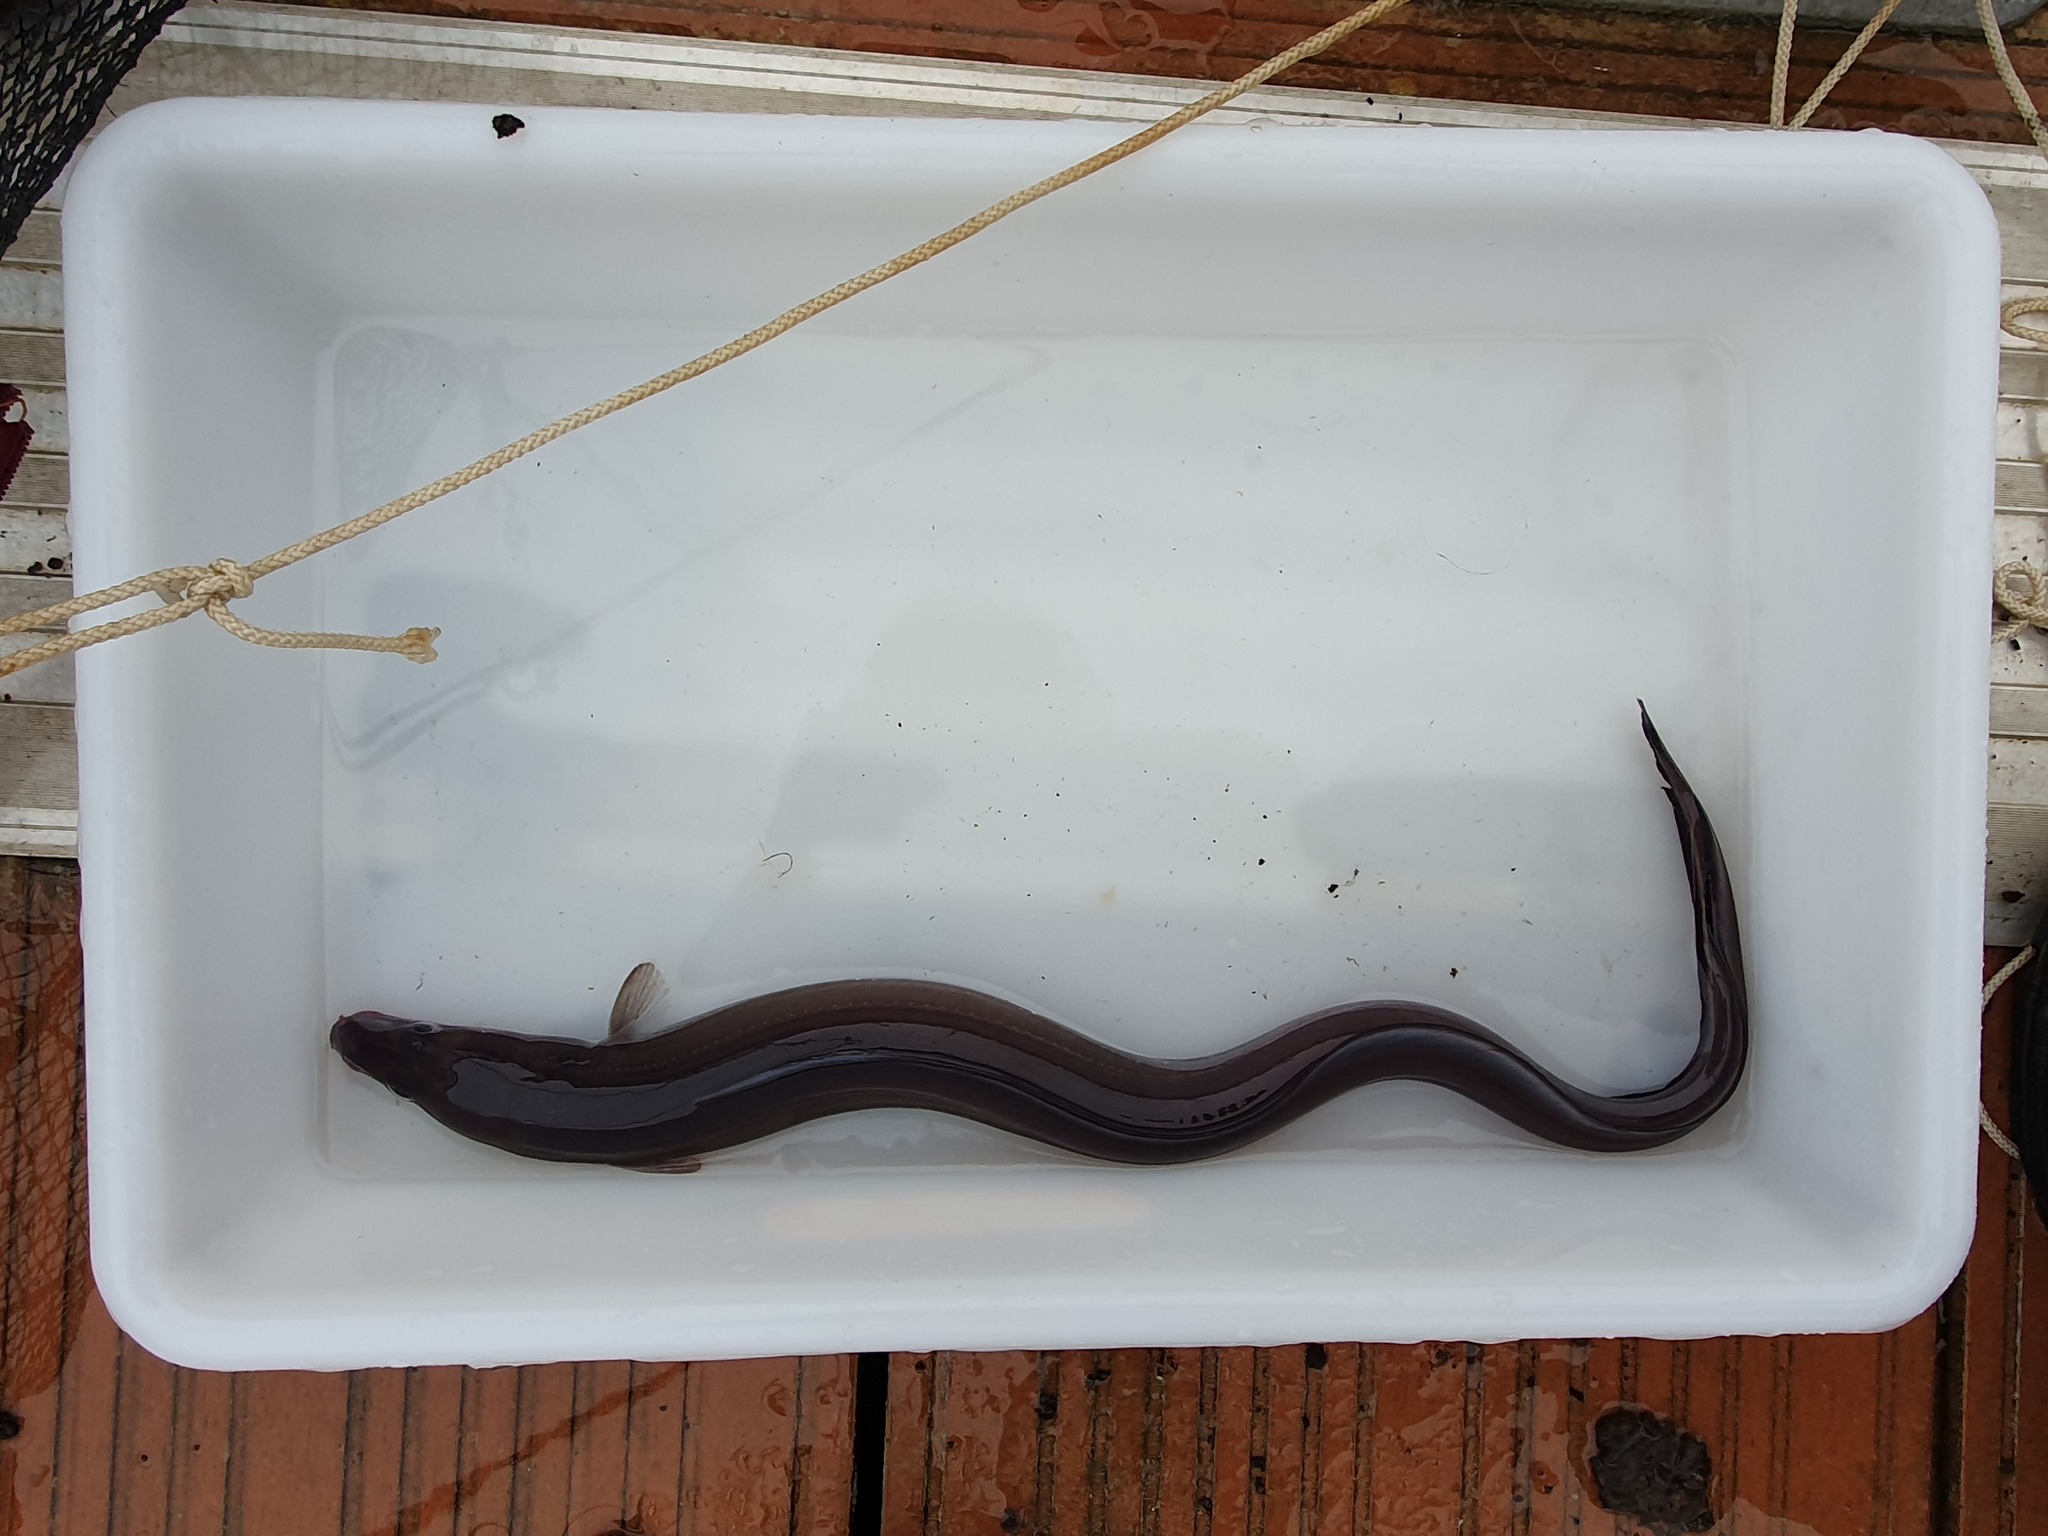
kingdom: Animalia
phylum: Chordata
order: Anguilliformes
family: Congridae
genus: Conger
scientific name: Conger conger
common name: Conger eel
